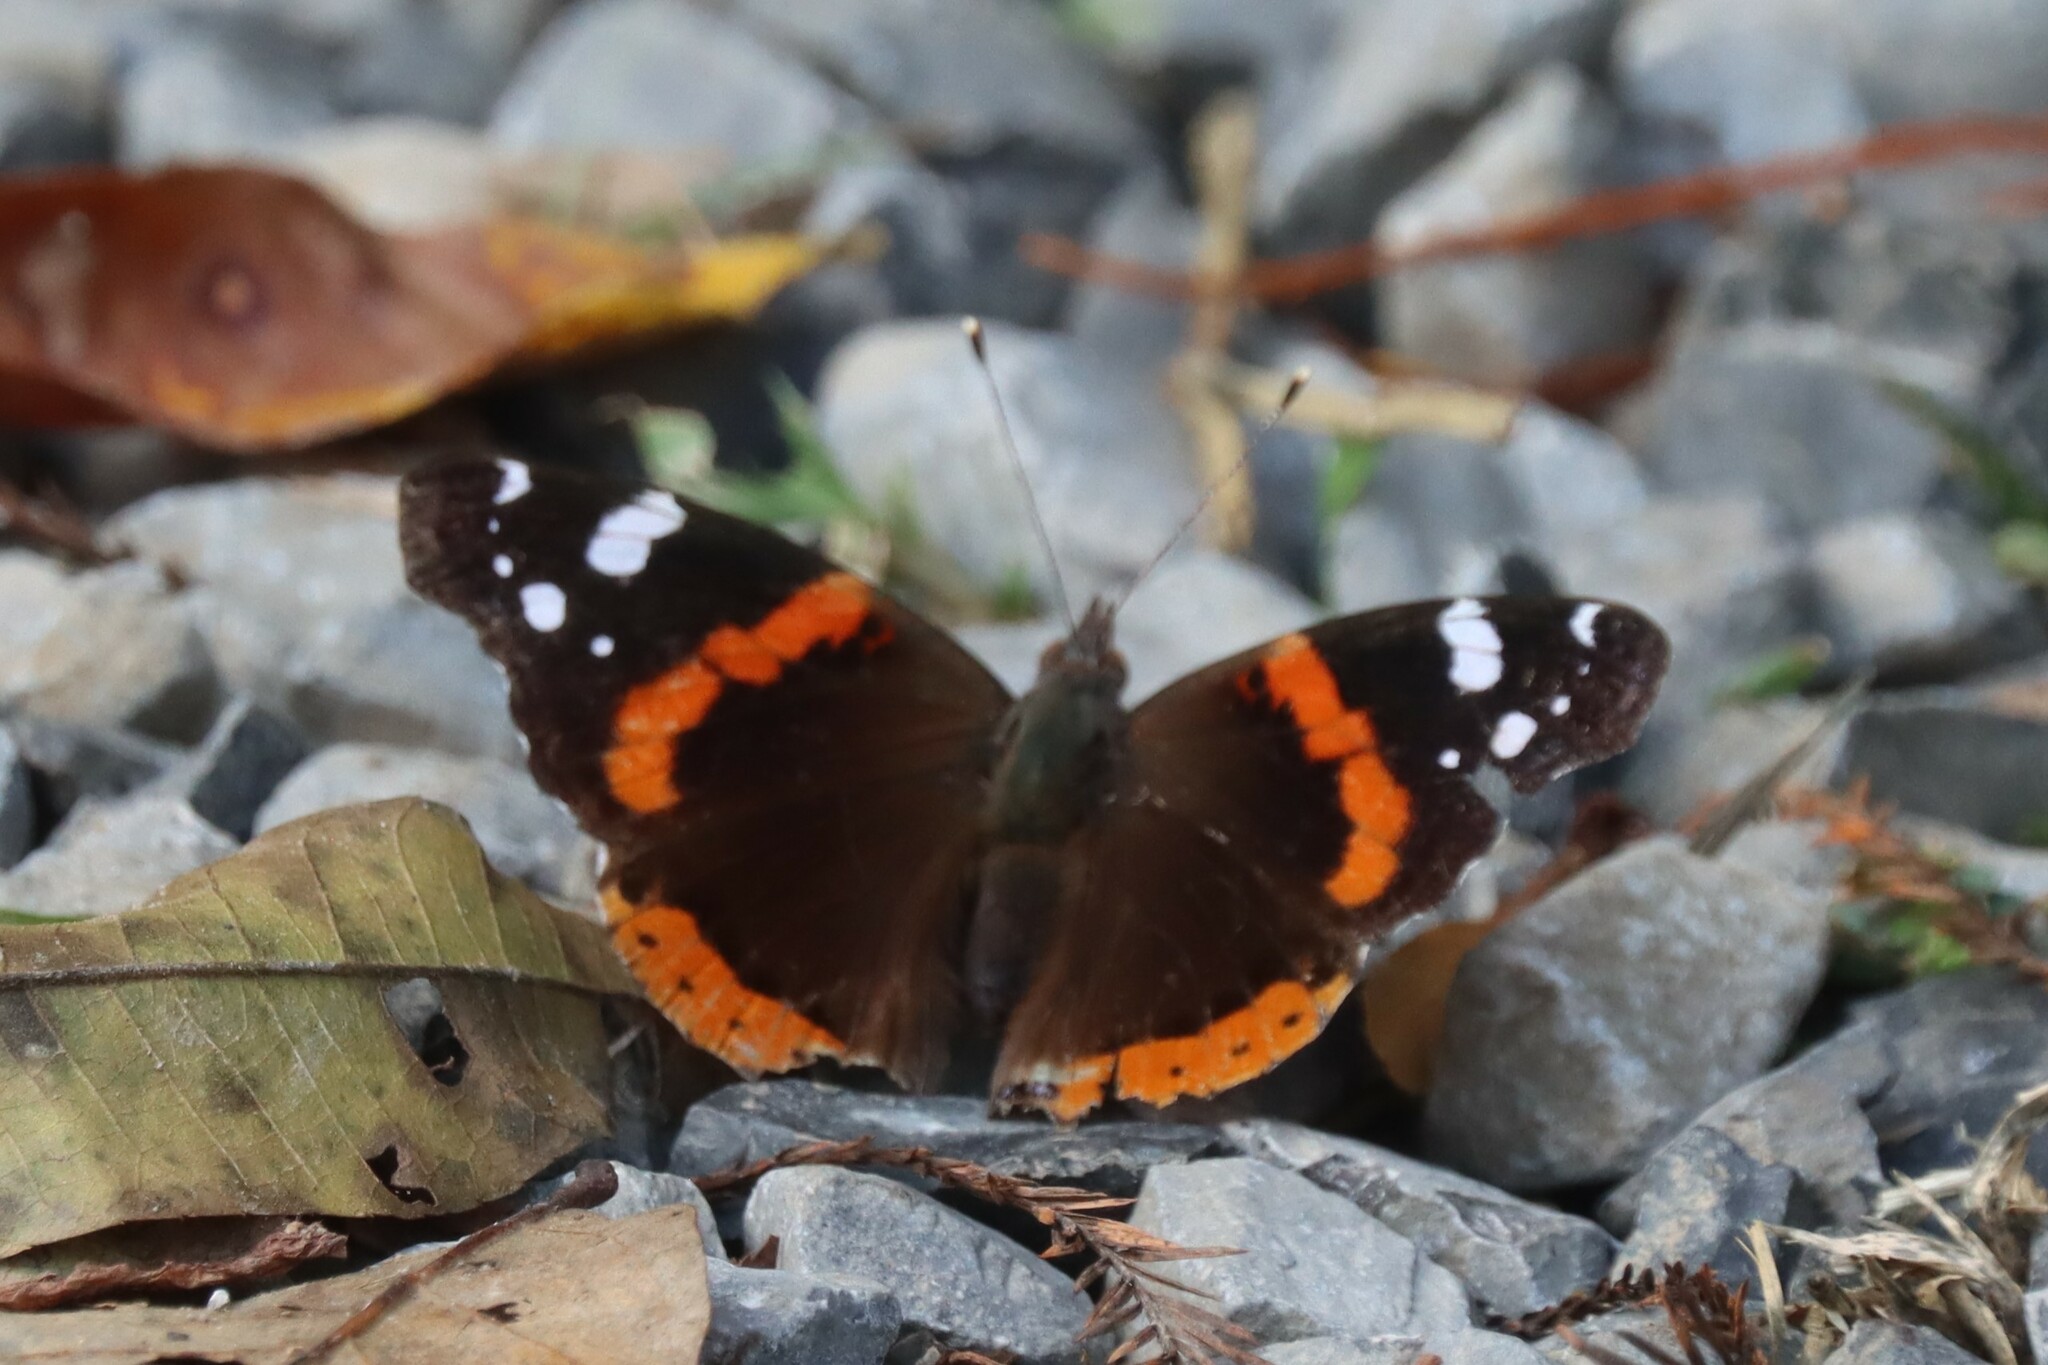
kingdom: Animalia
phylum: Arthropoda
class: Insecta
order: Lepidoptera
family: Nymphalidae
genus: Vanessa
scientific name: Vanessa atalanta
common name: Red admiral
